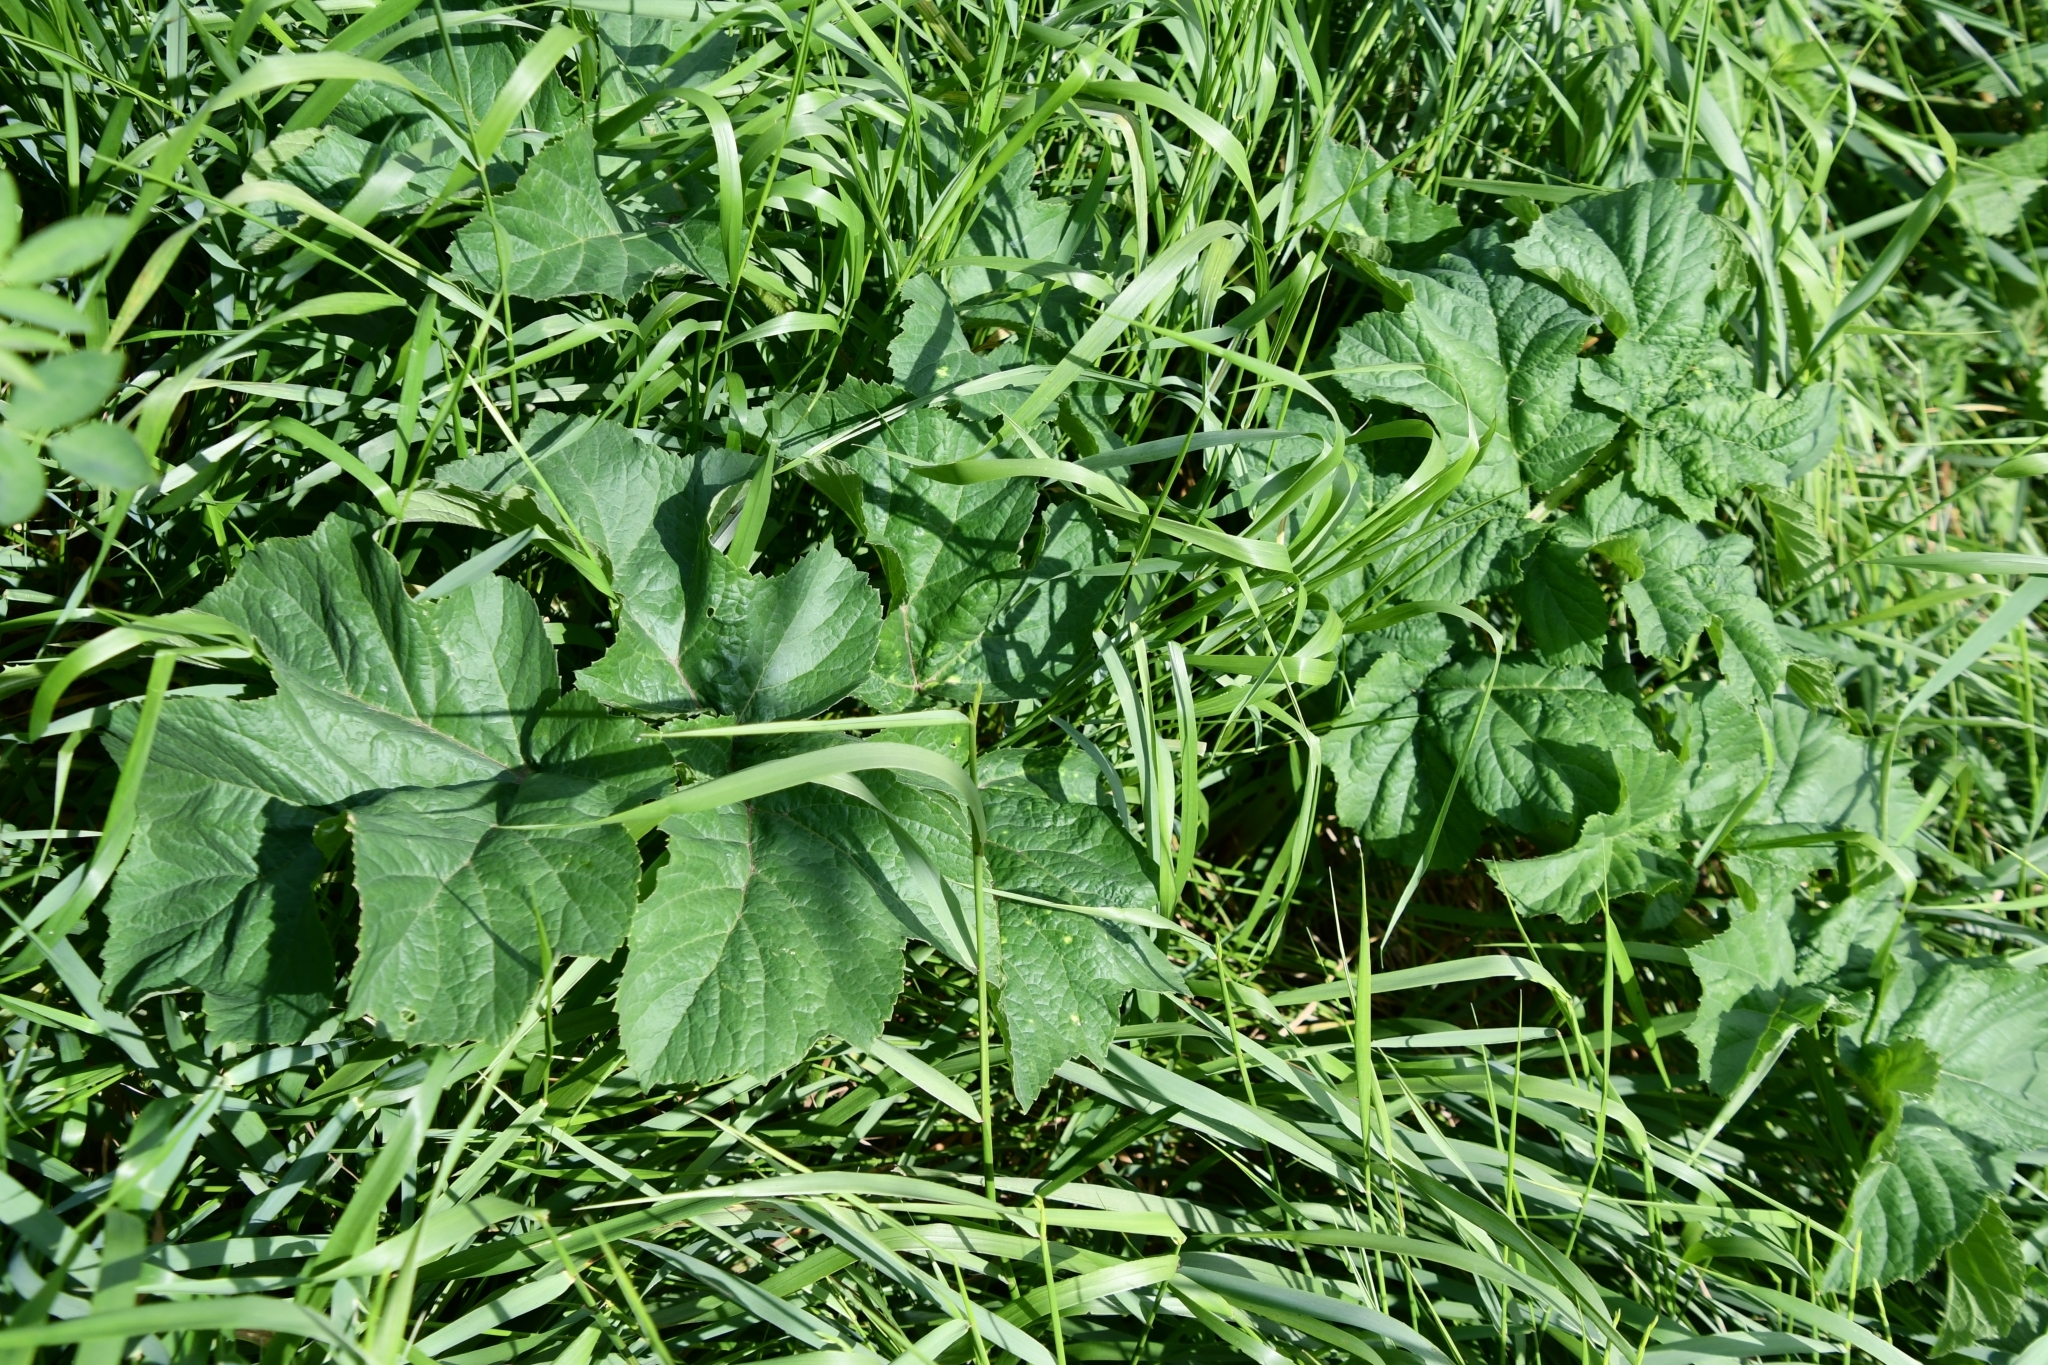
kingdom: Plantae
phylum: Tracheophyta
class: Magnoliopsida
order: Apiales
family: Apiaceae
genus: Heracleum
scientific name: Heracleum sphondylium
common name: Hogweed
